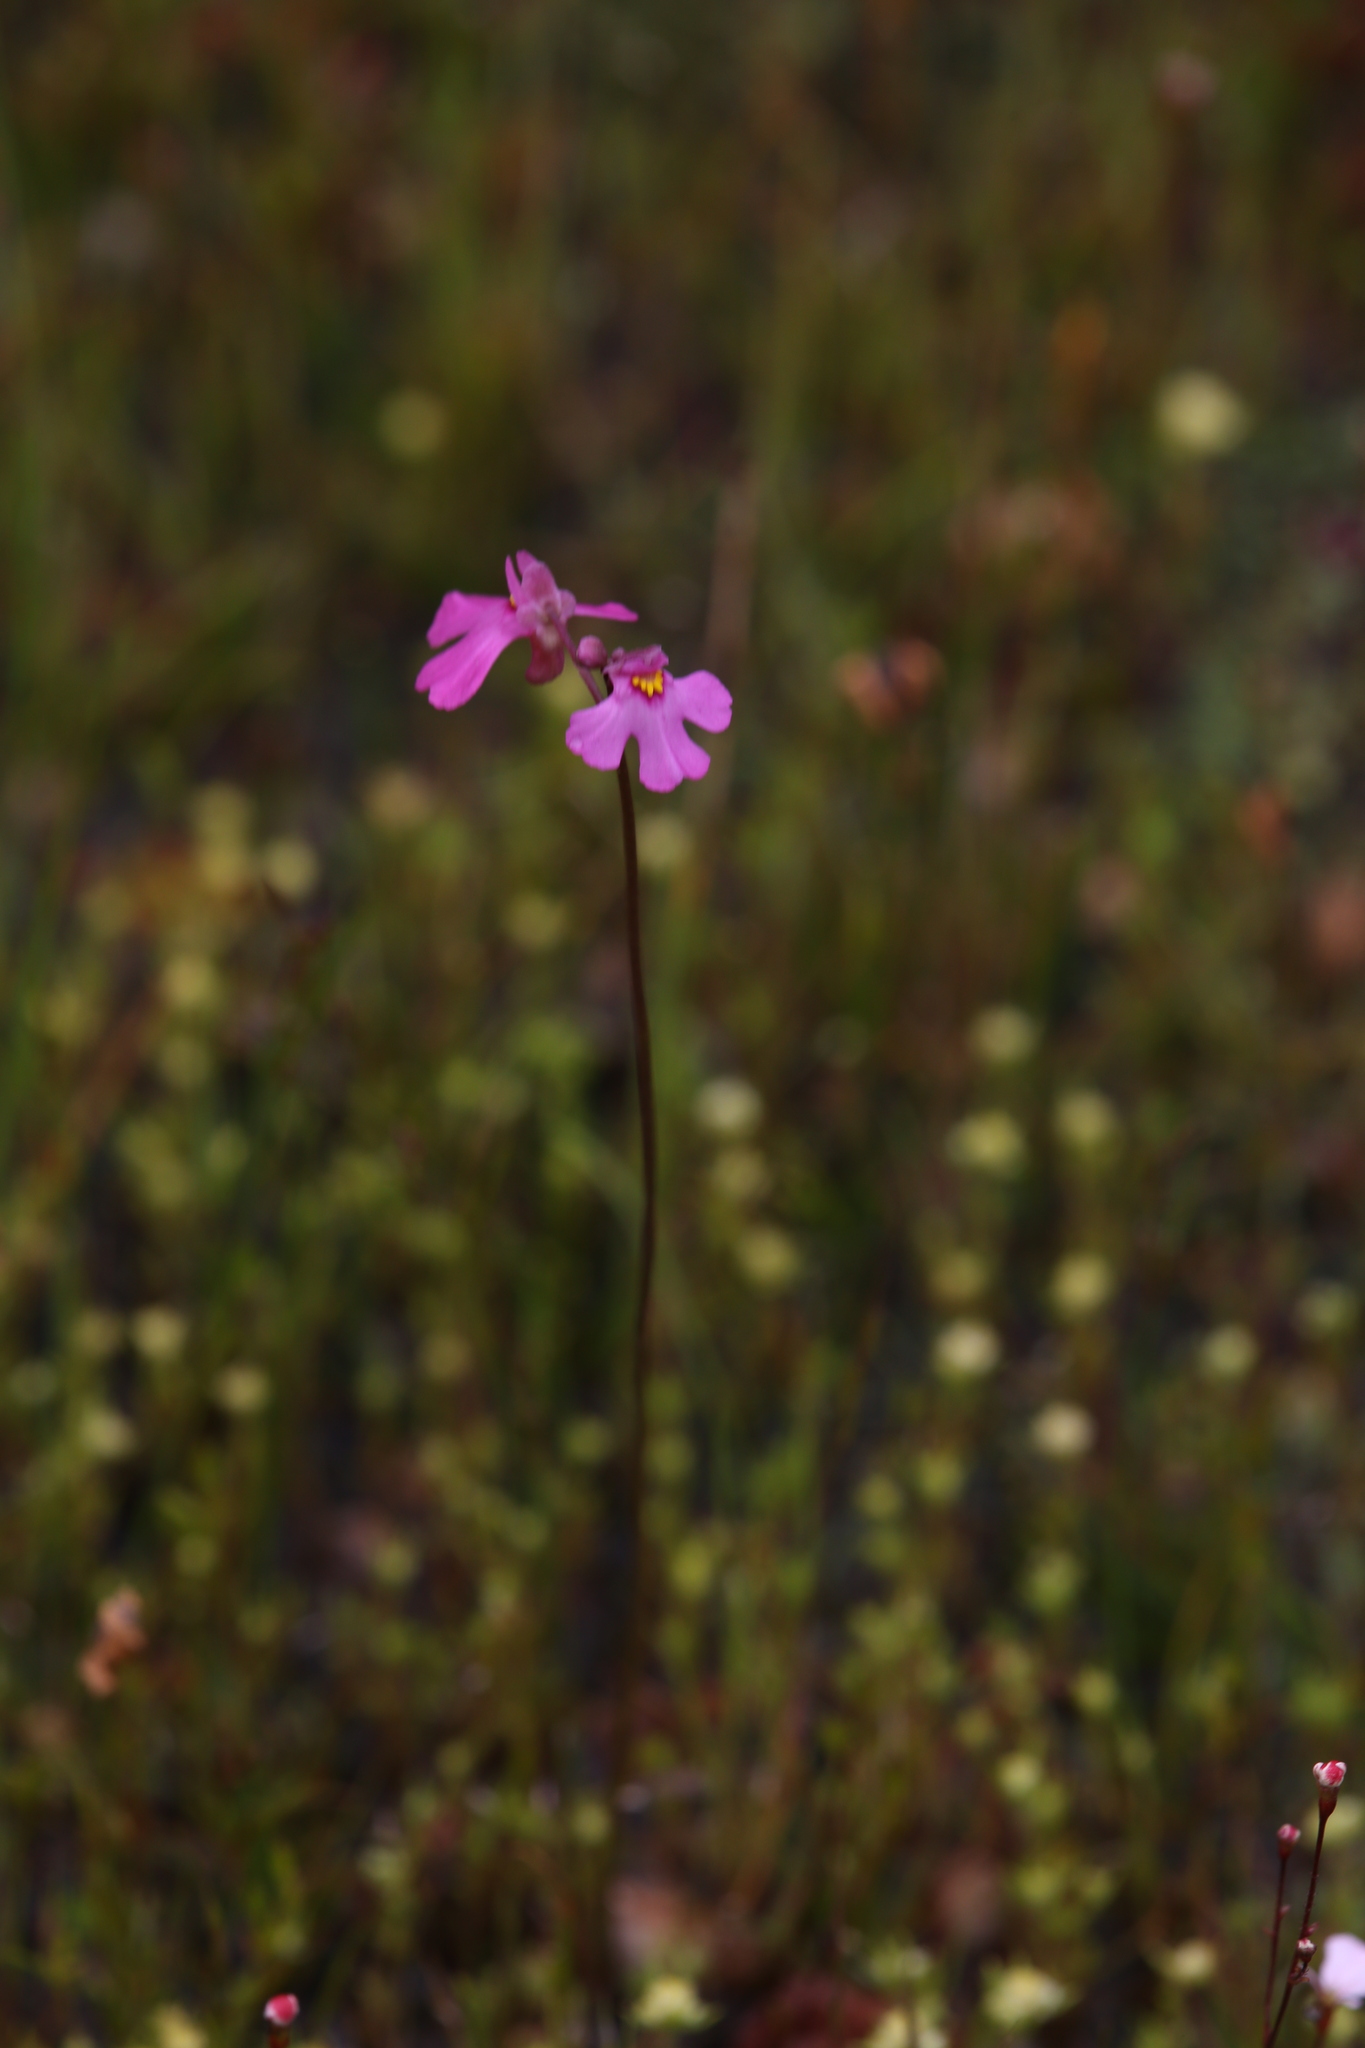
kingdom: Plantae
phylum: Tracheophyta
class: Magnoliopsida
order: Lamiales
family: Lentibulariaceae
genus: Utricularia
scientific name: Utricularia multifida
